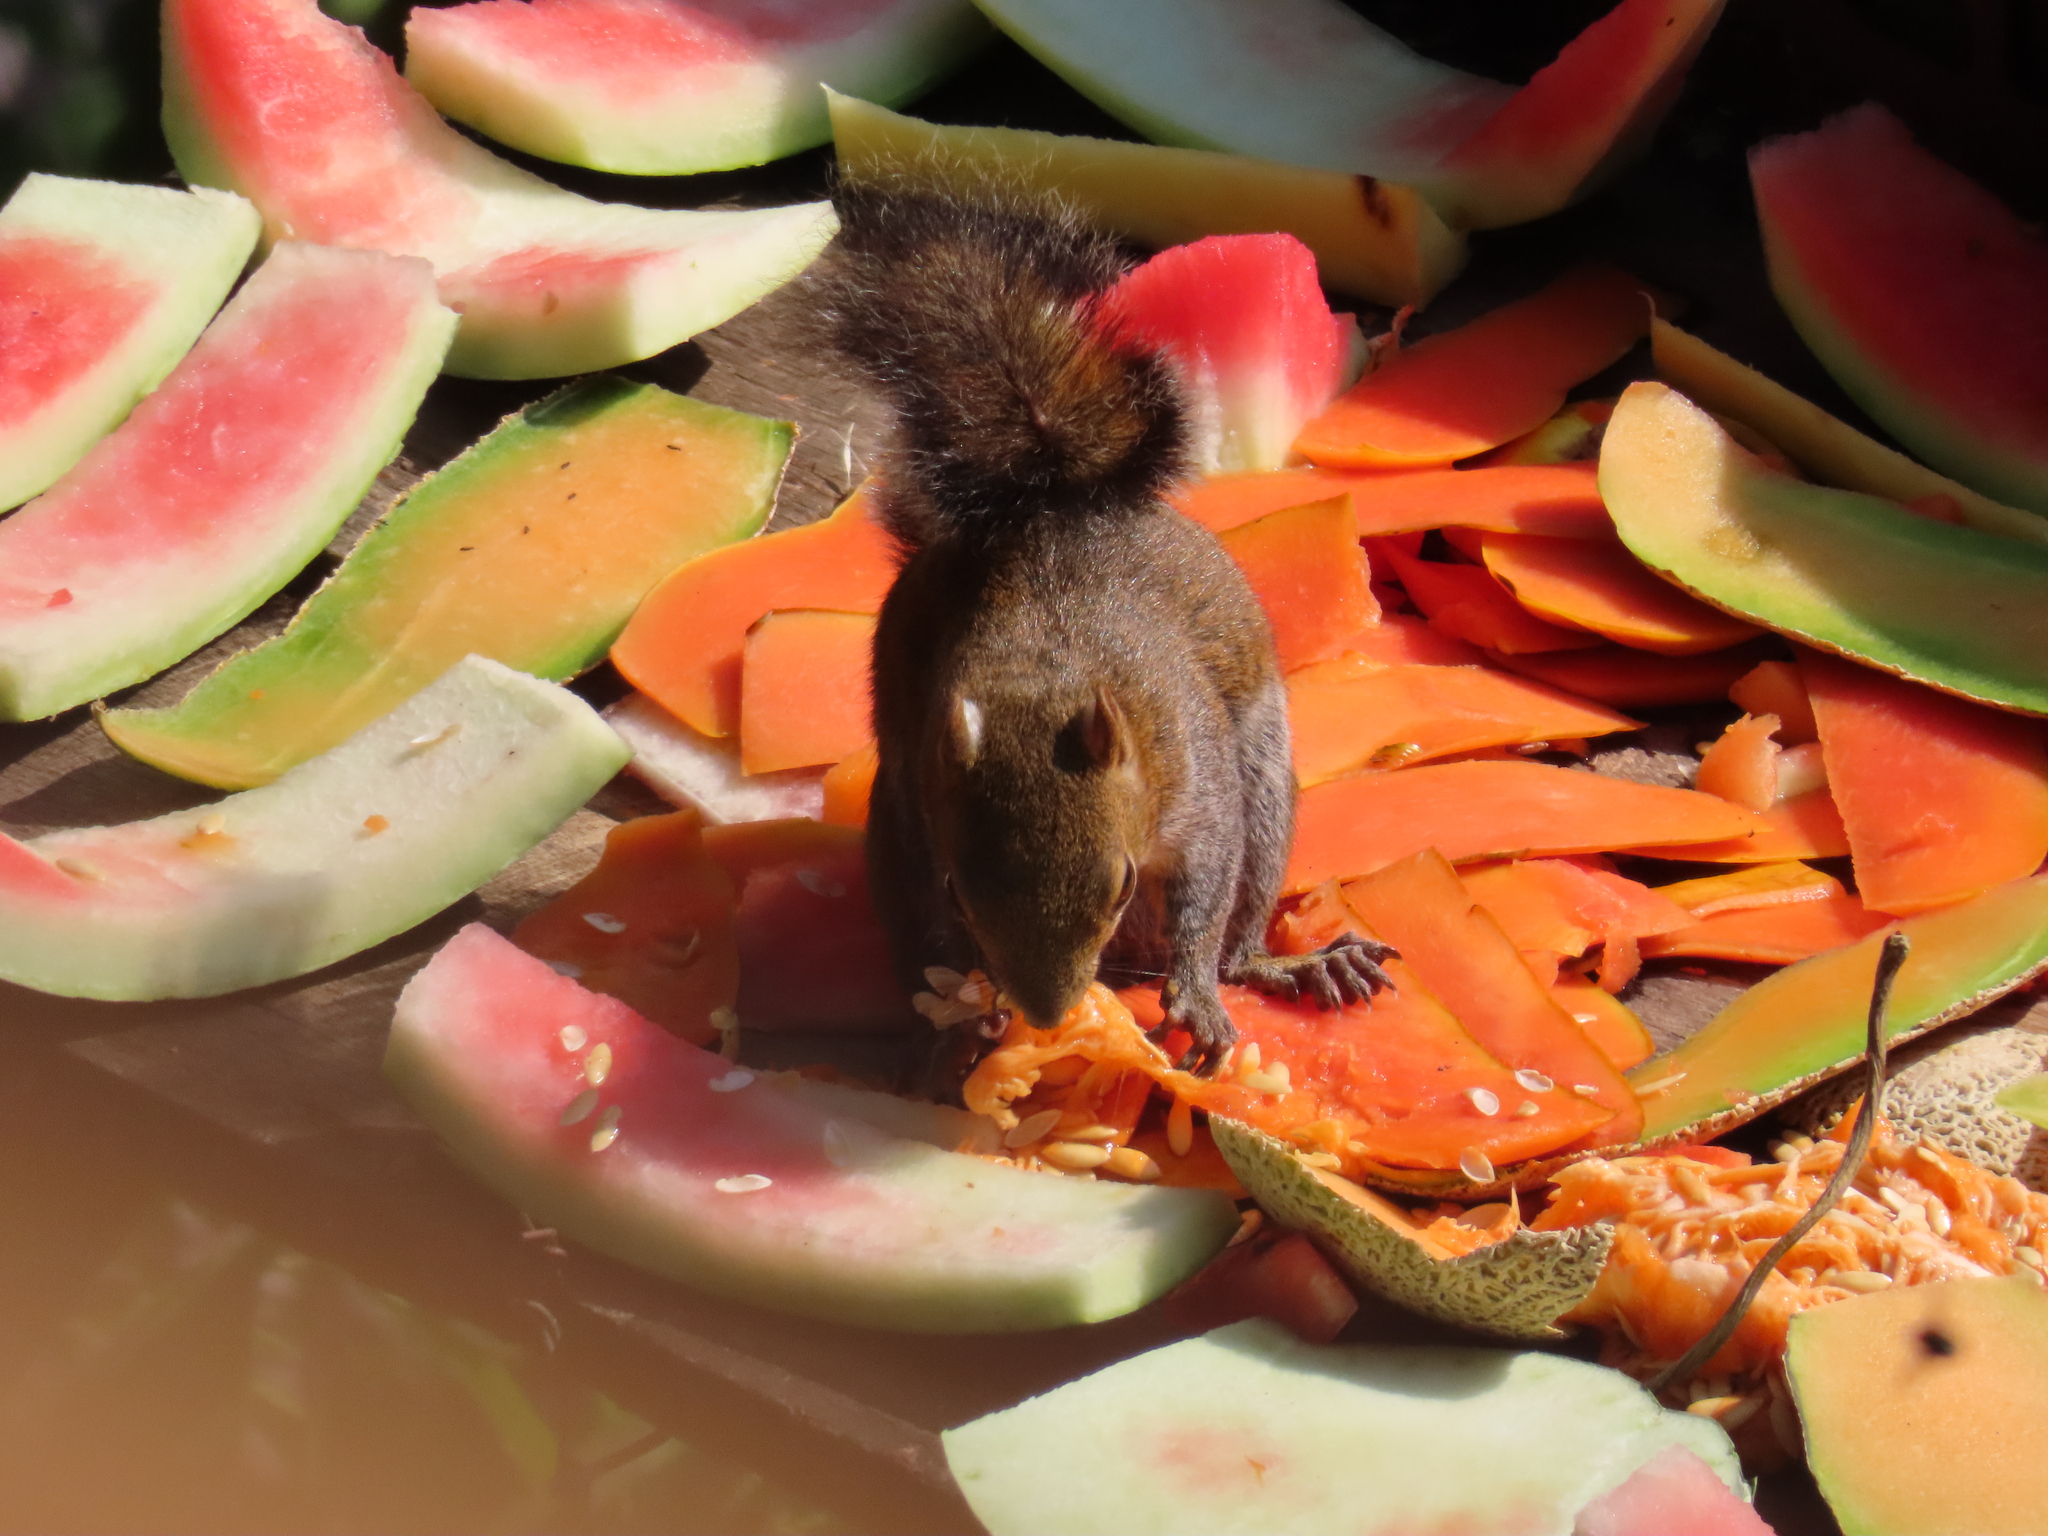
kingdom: Animalia
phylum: Chordata
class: Mammalia
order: Rodentia
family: Sciuridae
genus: Sciurus
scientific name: Sciurus deppei
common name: Deppe's squirrel
